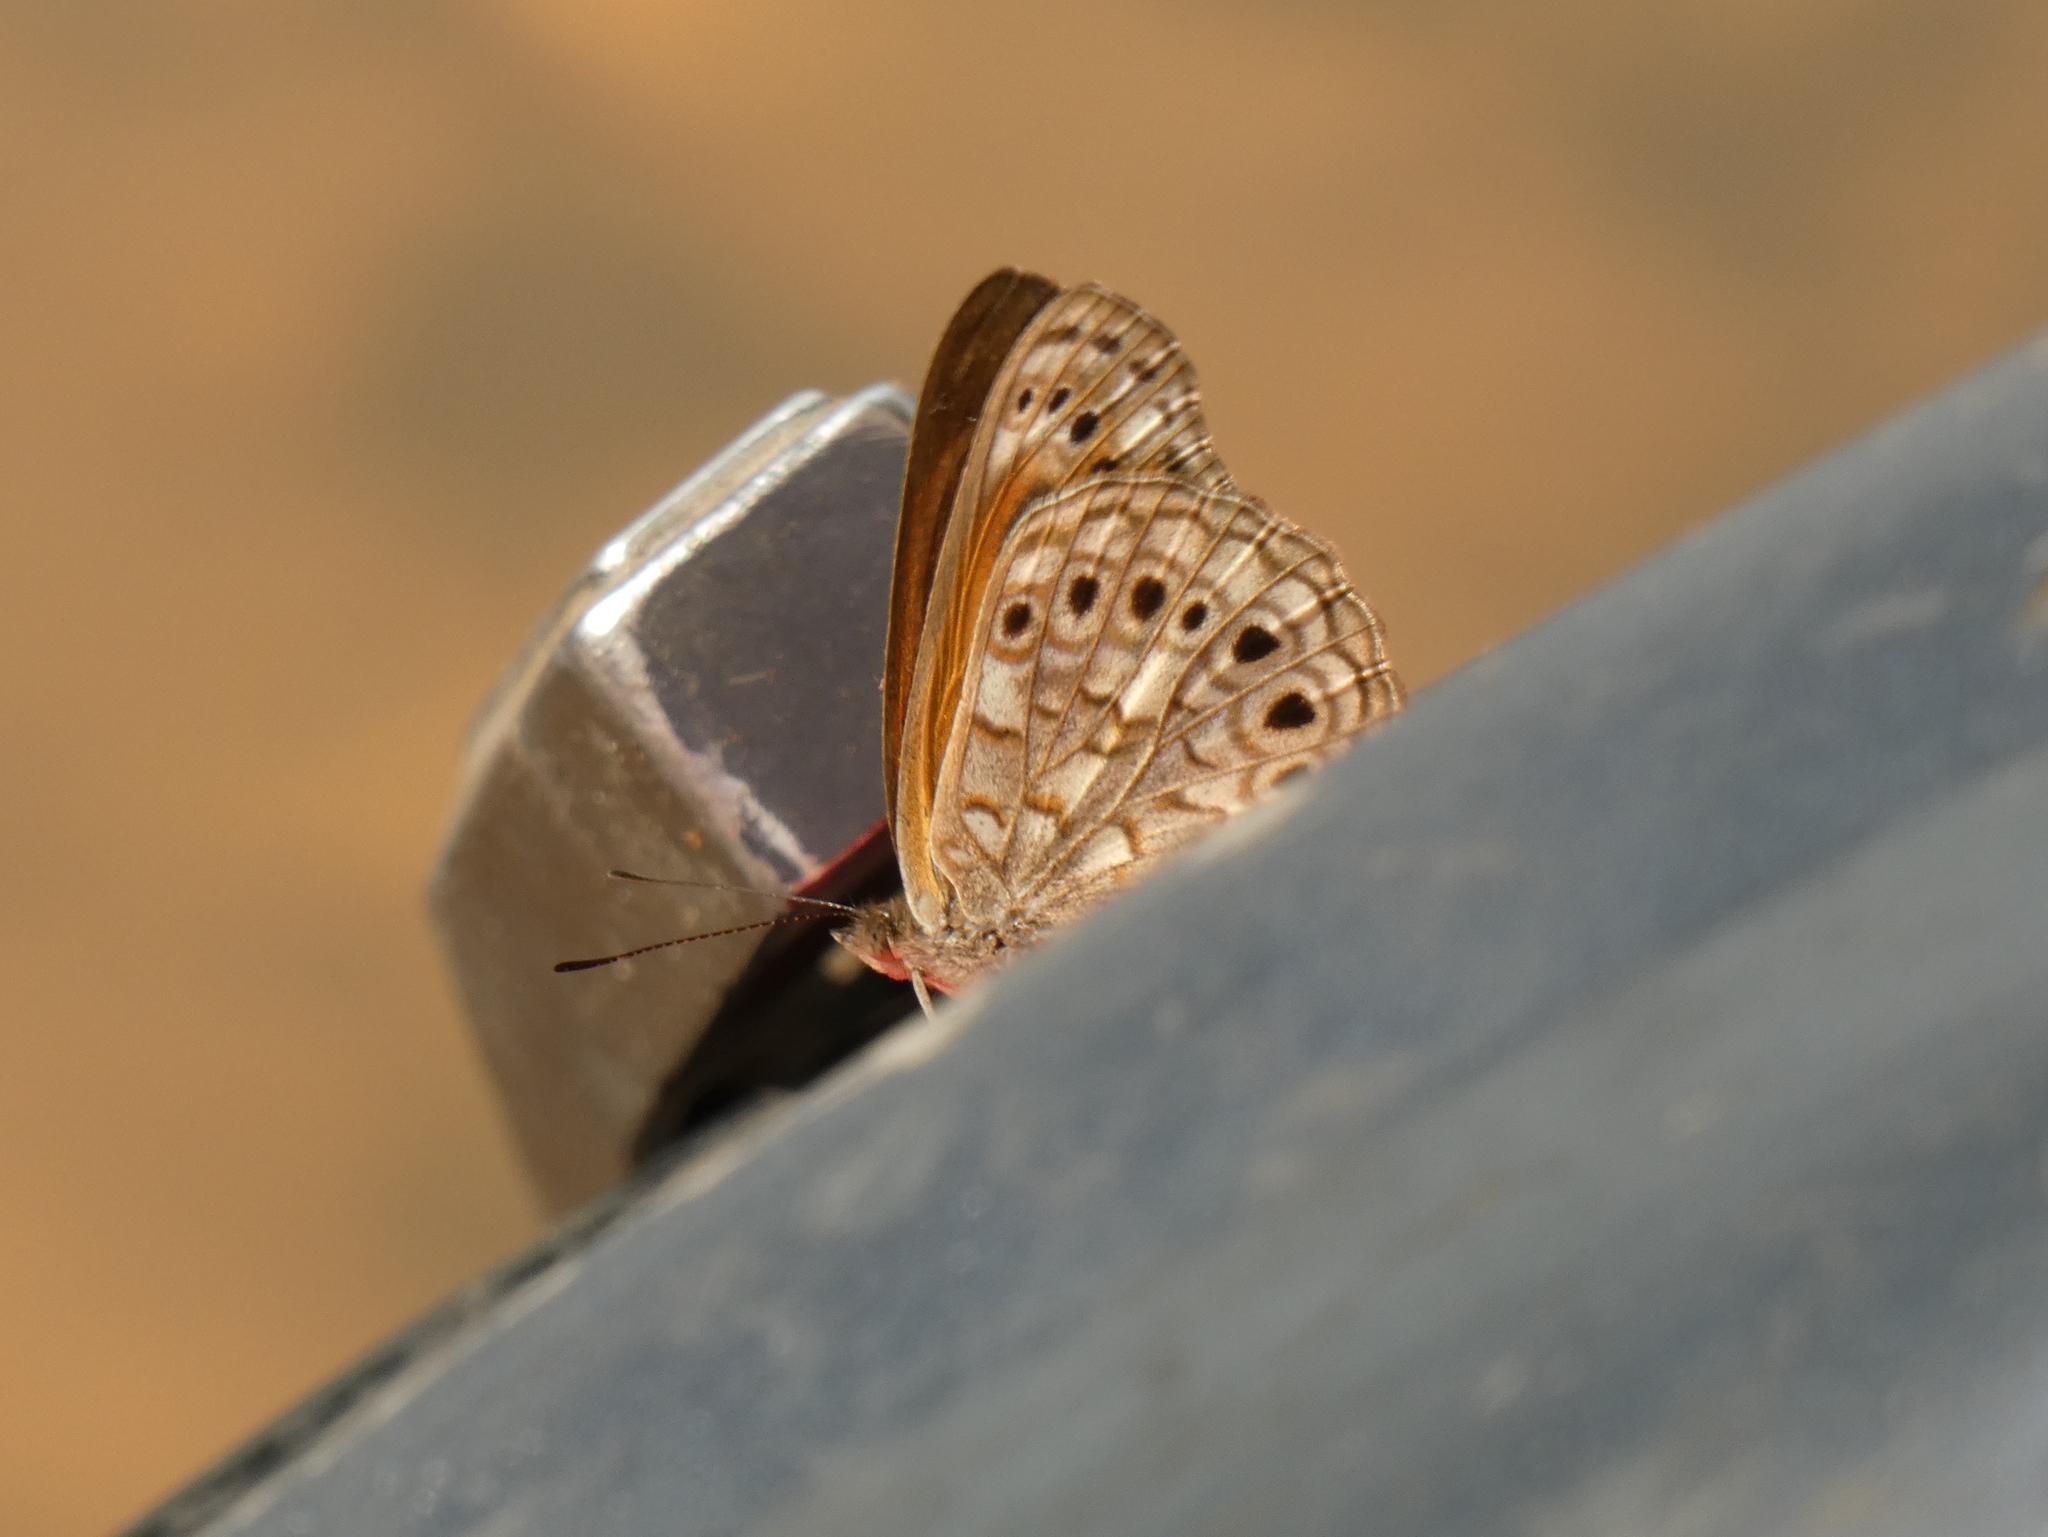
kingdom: Animalia
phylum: Arthropoda
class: Insecta
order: Lepidoptera
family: Nymphalidae
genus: Asterope
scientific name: Asterope boisduvali
